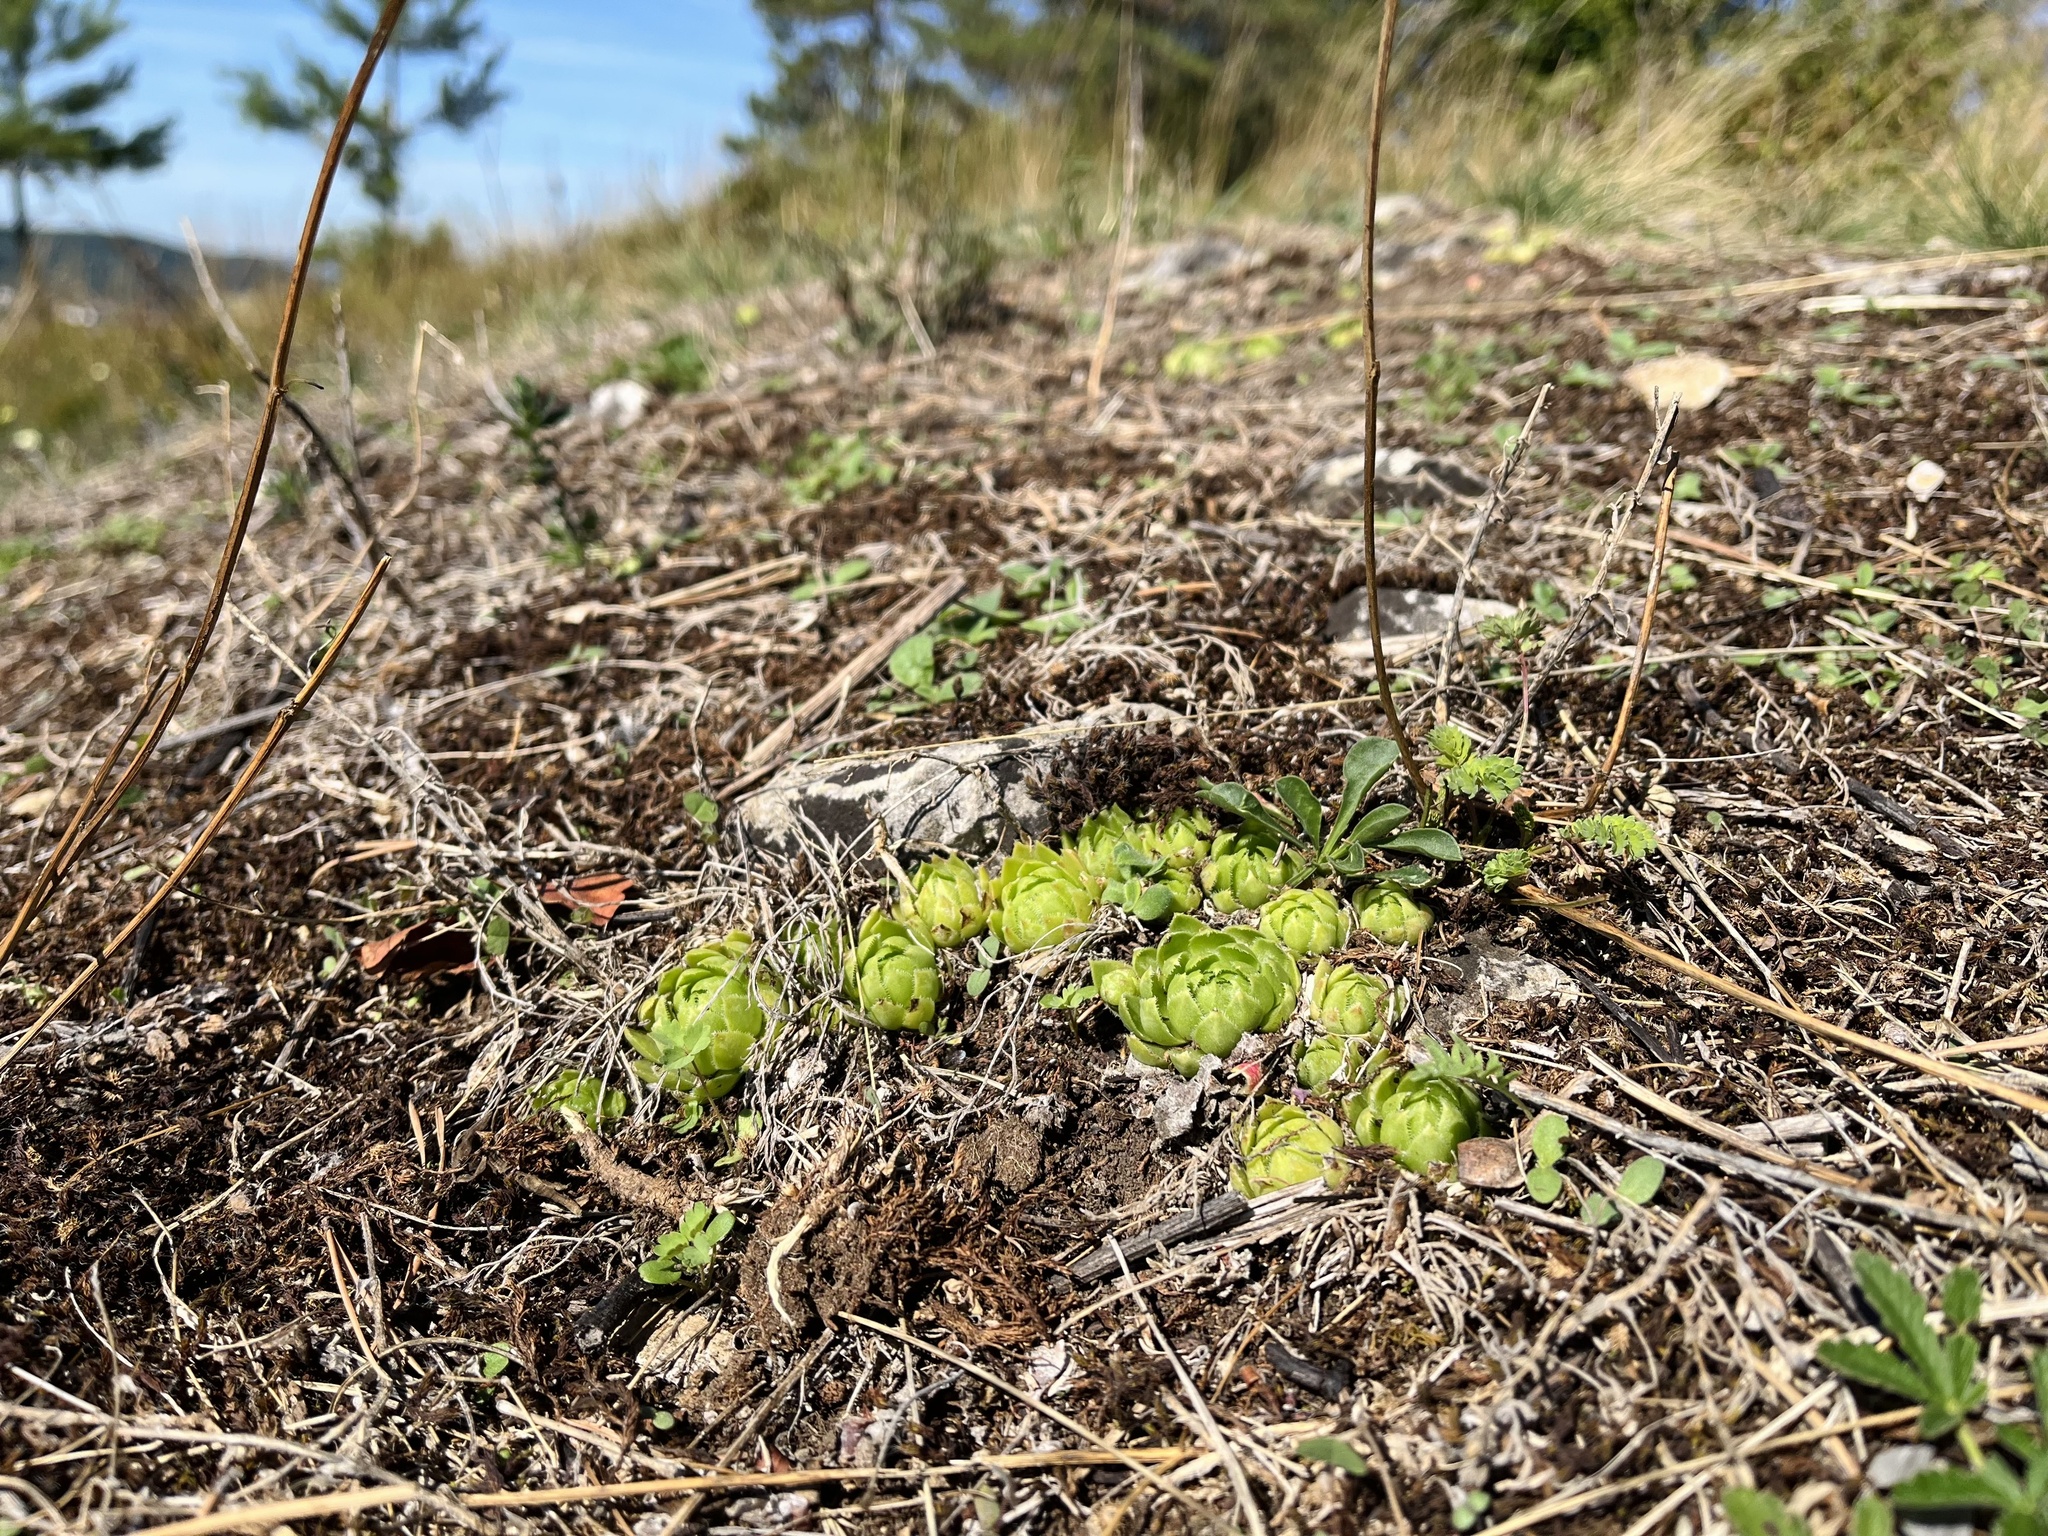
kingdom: Plantae
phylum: Tracheophyta
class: Magnoliopsida
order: Saxifragales
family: Crassulaceae
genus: Sempervivum
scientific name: Sempervivum globiferum
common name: Rolling hen-and-chicks
